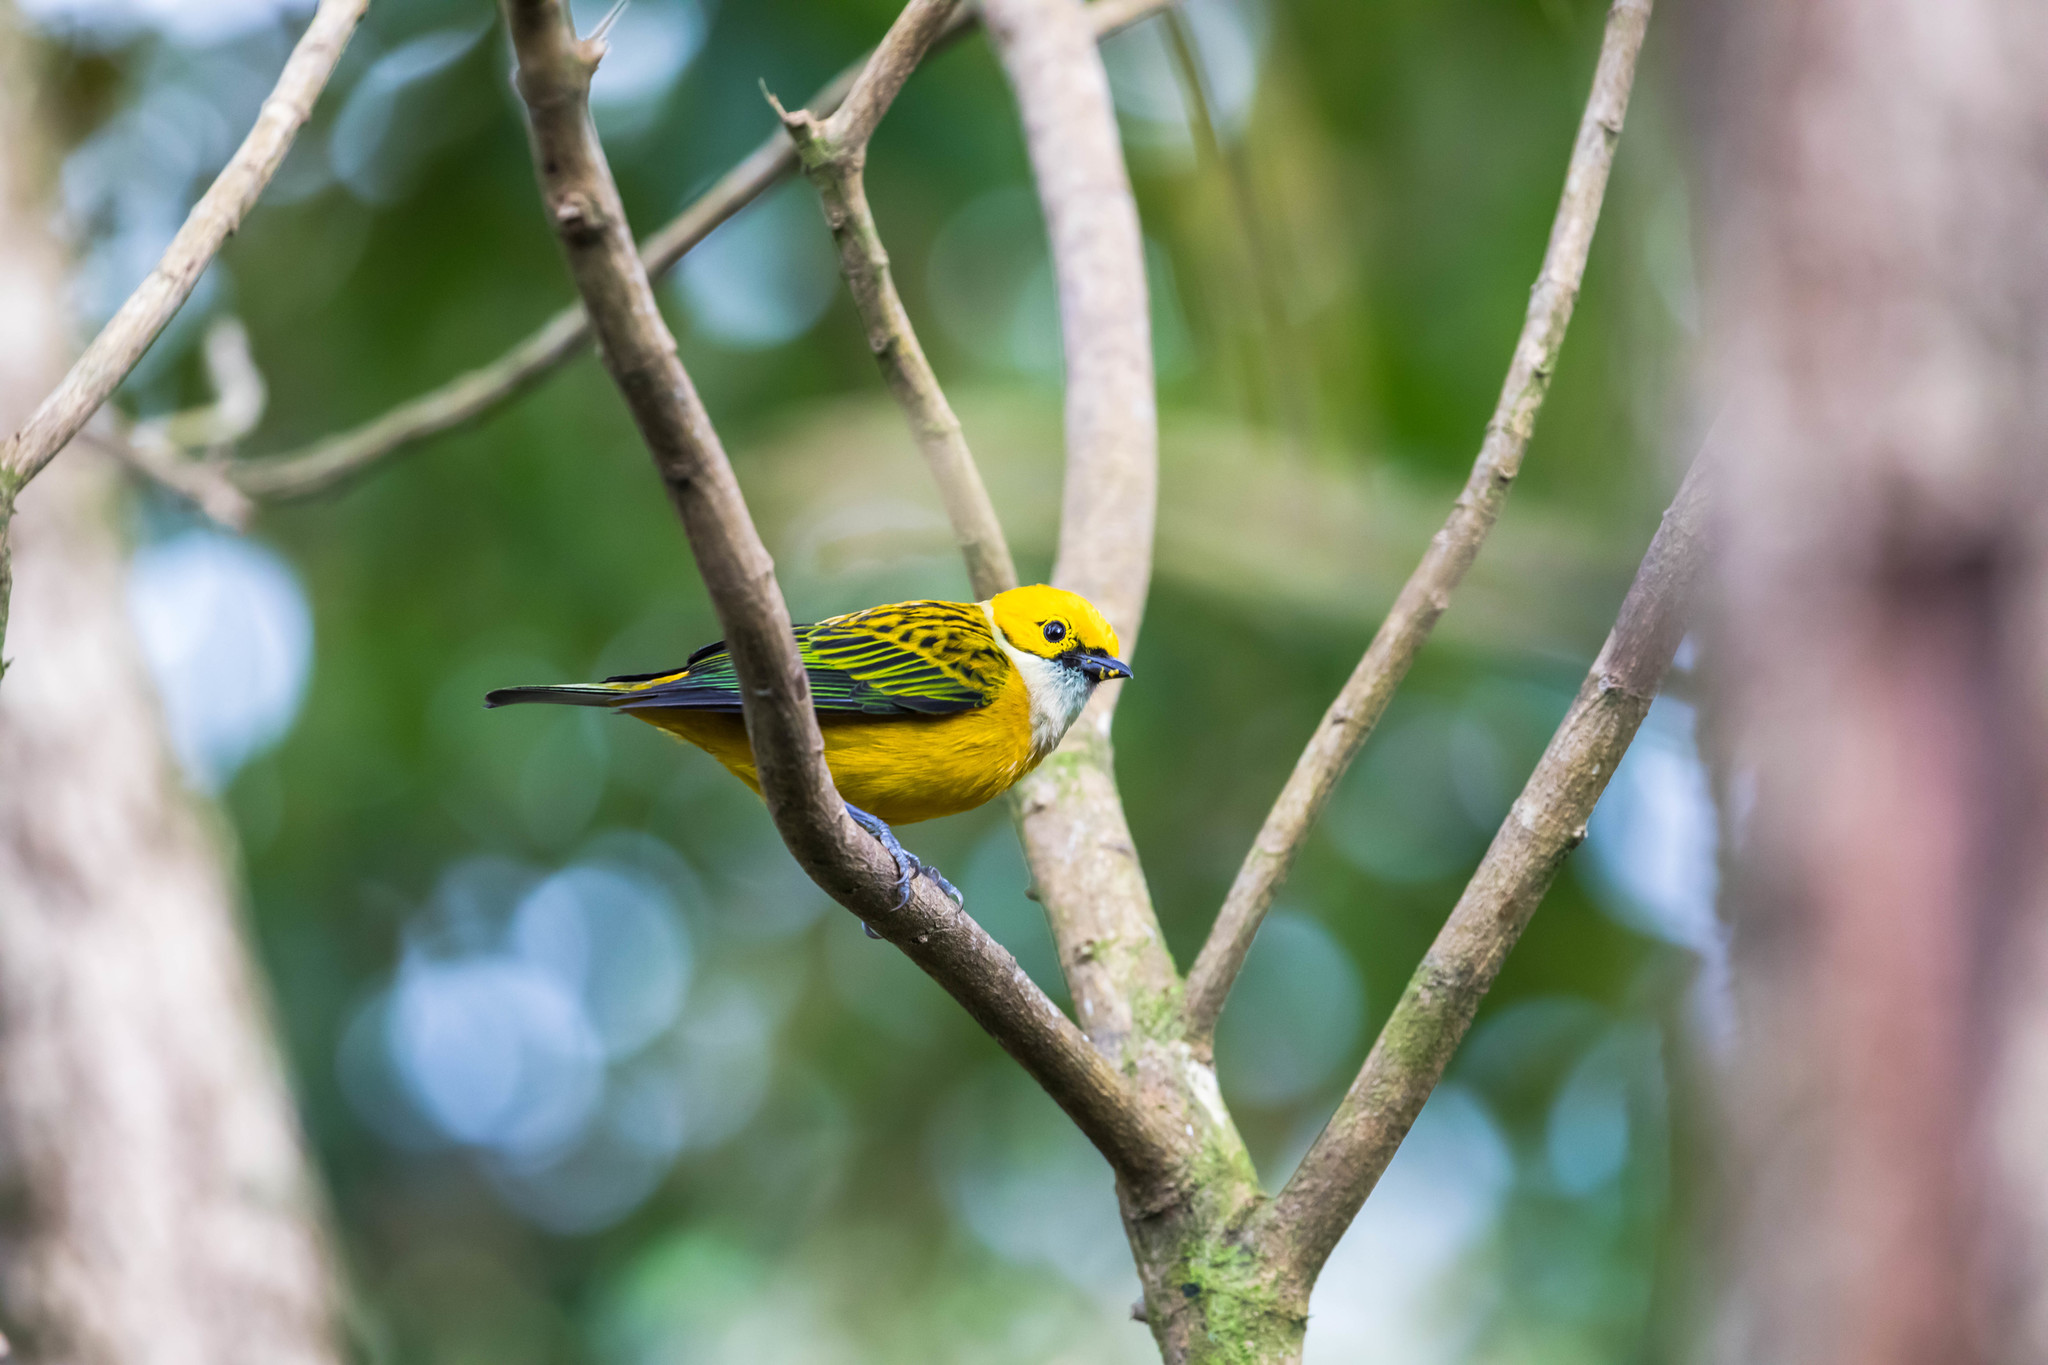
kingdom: Animalia
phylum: Chordata
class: Aves
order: Passeriformes
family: Thraupidae
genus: Tangara
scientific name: Tangara icterocephala
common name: Silver-throated tanager
